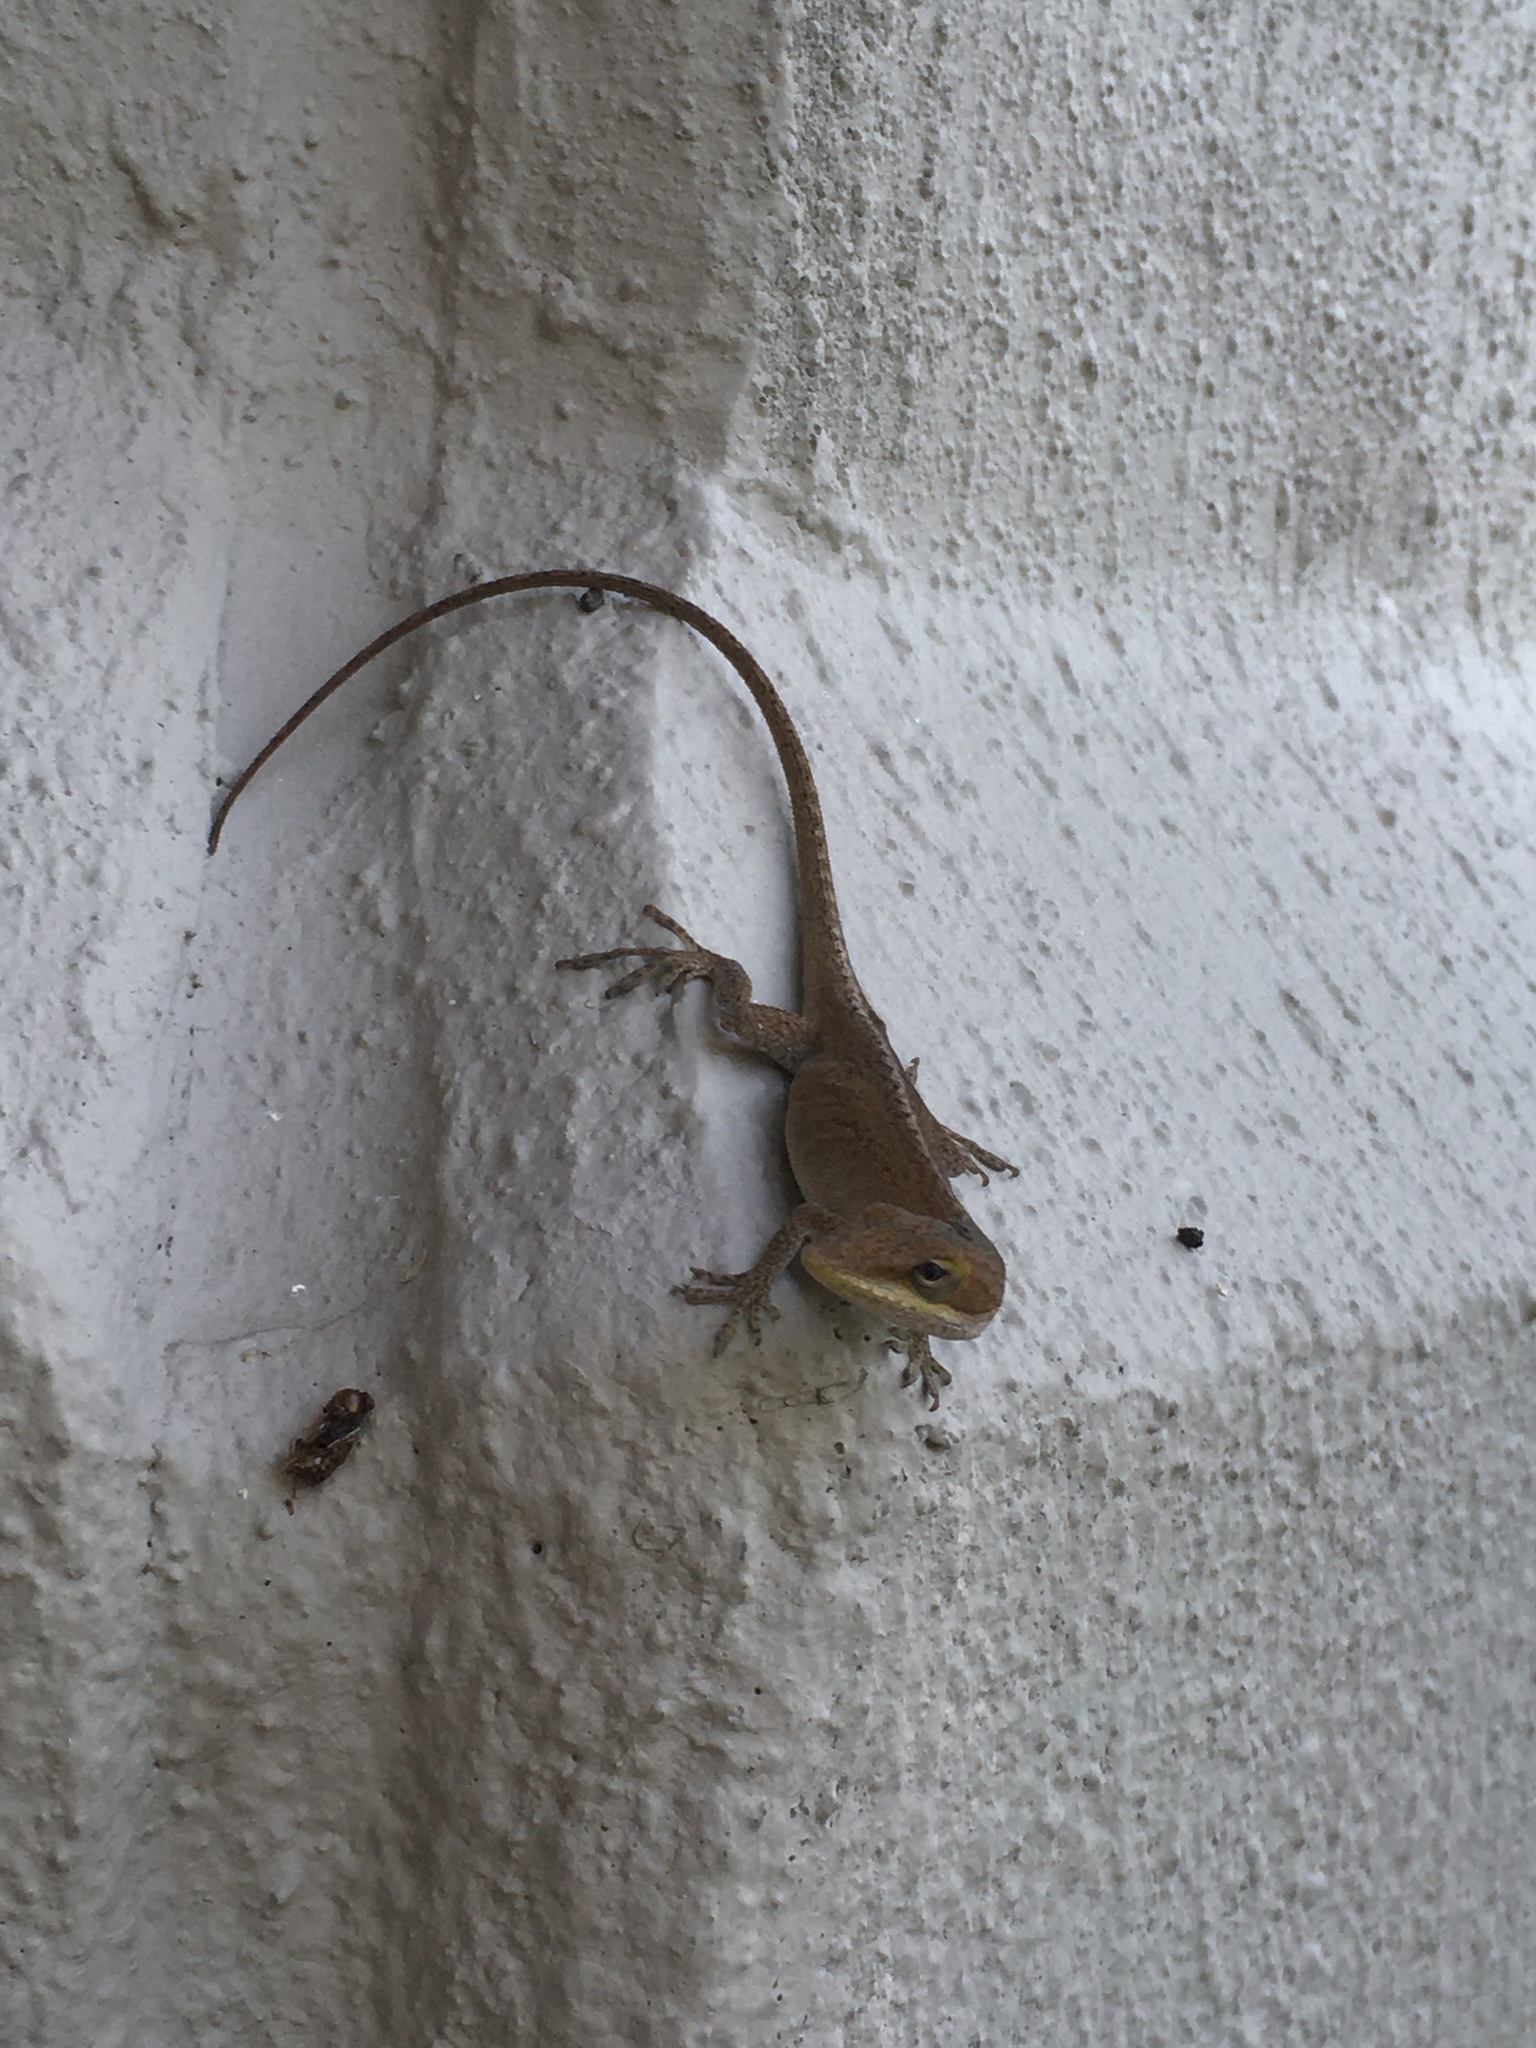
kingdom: Animalia
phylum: Chordata
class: Squamata
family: Dactyloidae
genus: Anolis
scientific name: Anolis carolinensis
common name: Green anole
